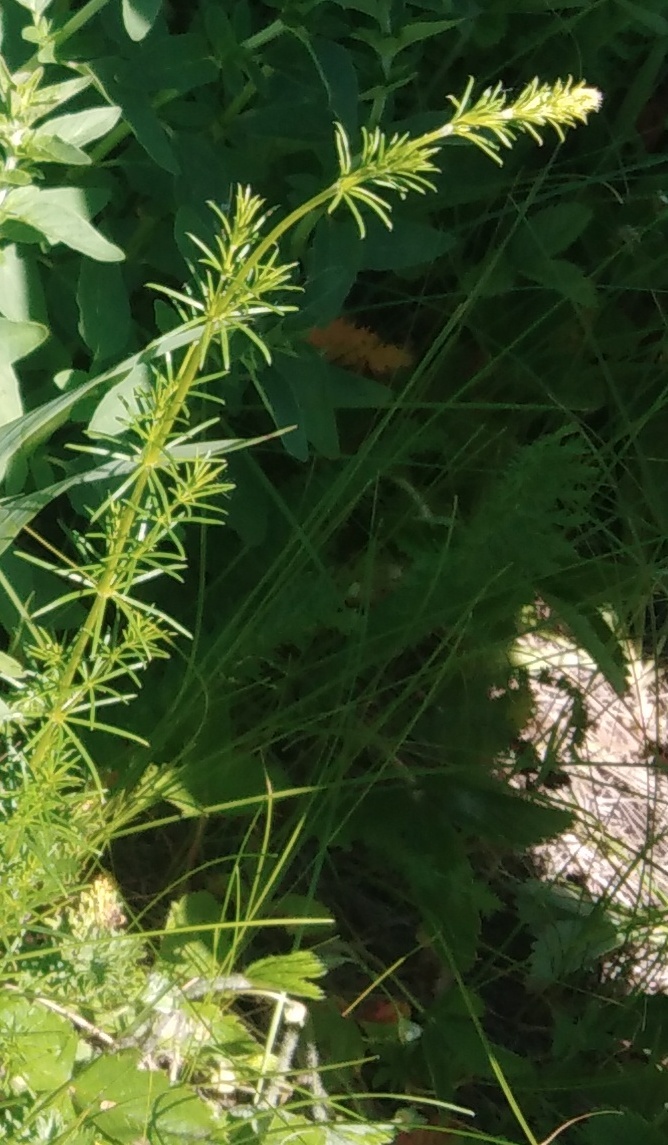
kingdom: Plantae
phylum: Tracheophyta
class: Magnoliopsida
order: Gentianales
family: Rubiaceae
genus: Galium
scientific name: Galium verum
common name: Lady's bedstraw
